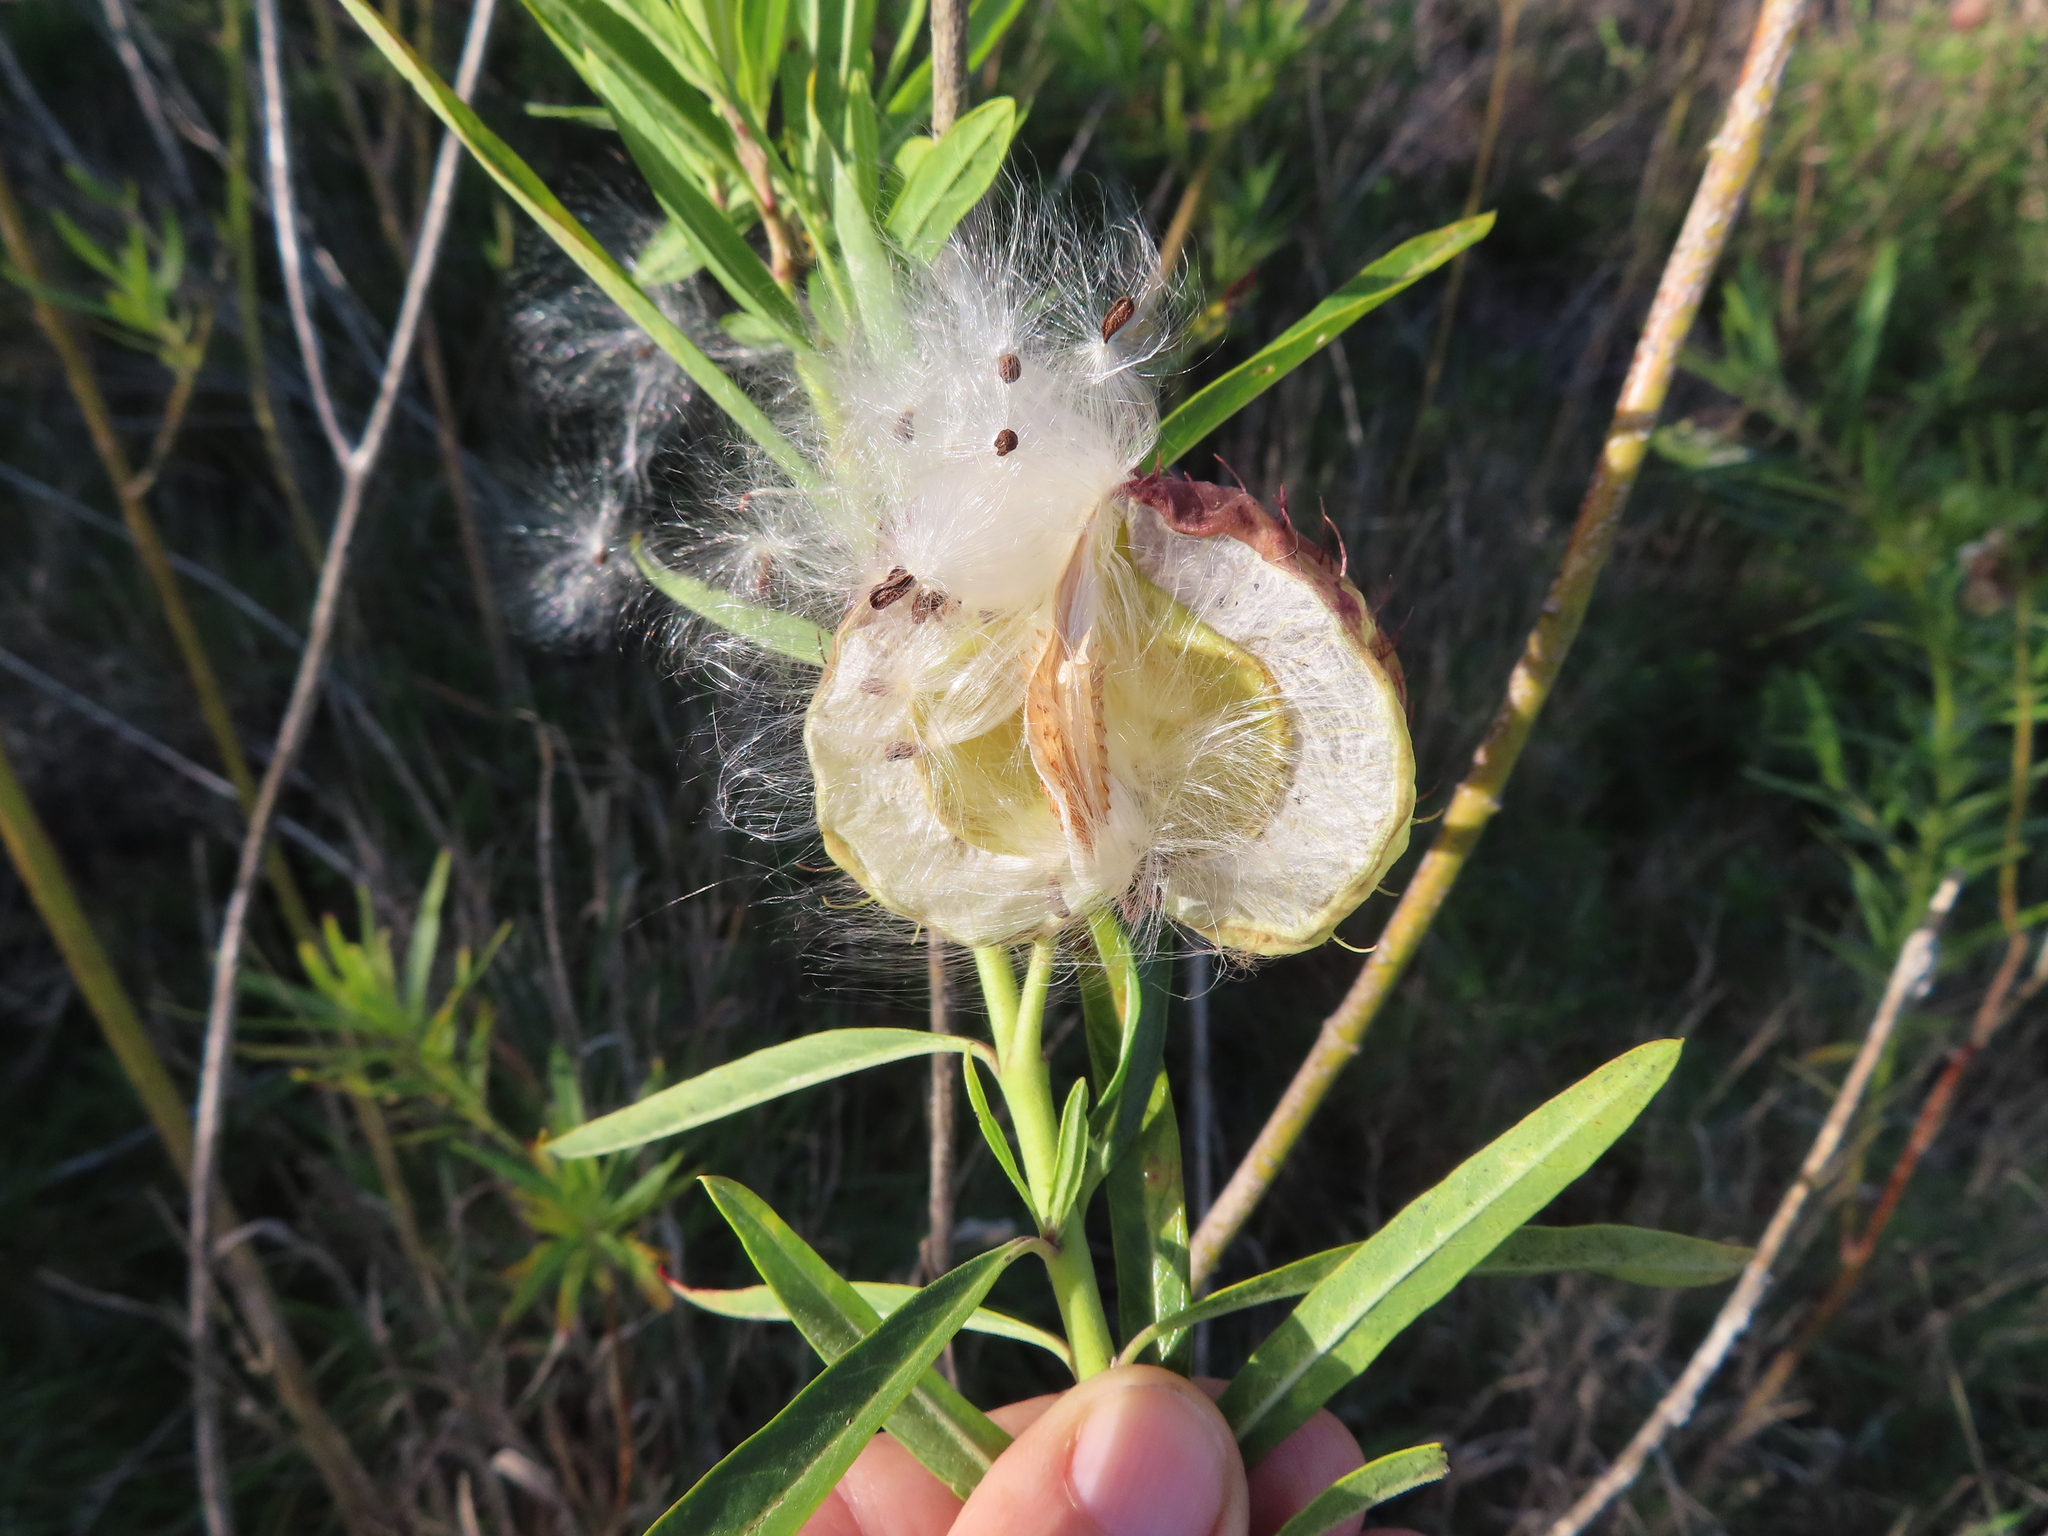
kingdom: Plantae
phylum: Tracheophyta
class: Magnoliopsida
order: Gentianales
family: Apocynaceae
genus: Gomphocarpus
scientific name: Gomphocarpus physocarpus
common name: Balloon cotton bush
